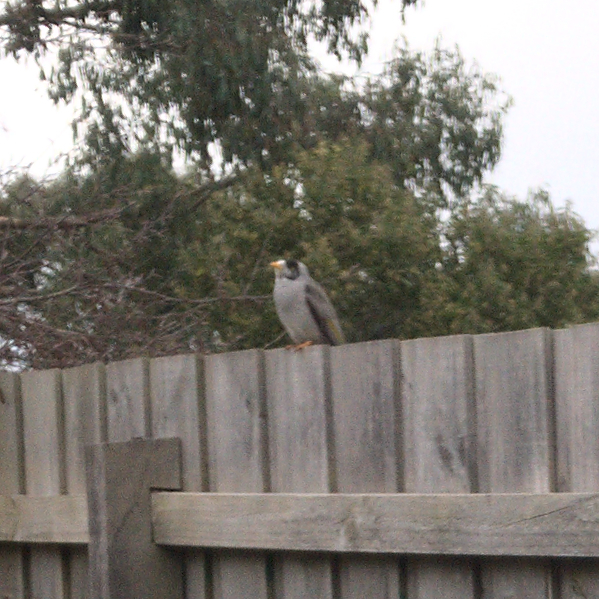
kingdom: Animalia
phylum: Chordata
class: Aves
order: Passeriformes
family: Meliphagidae
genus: Manorina
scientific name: Manorina melanocephala
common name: Noisy miner
